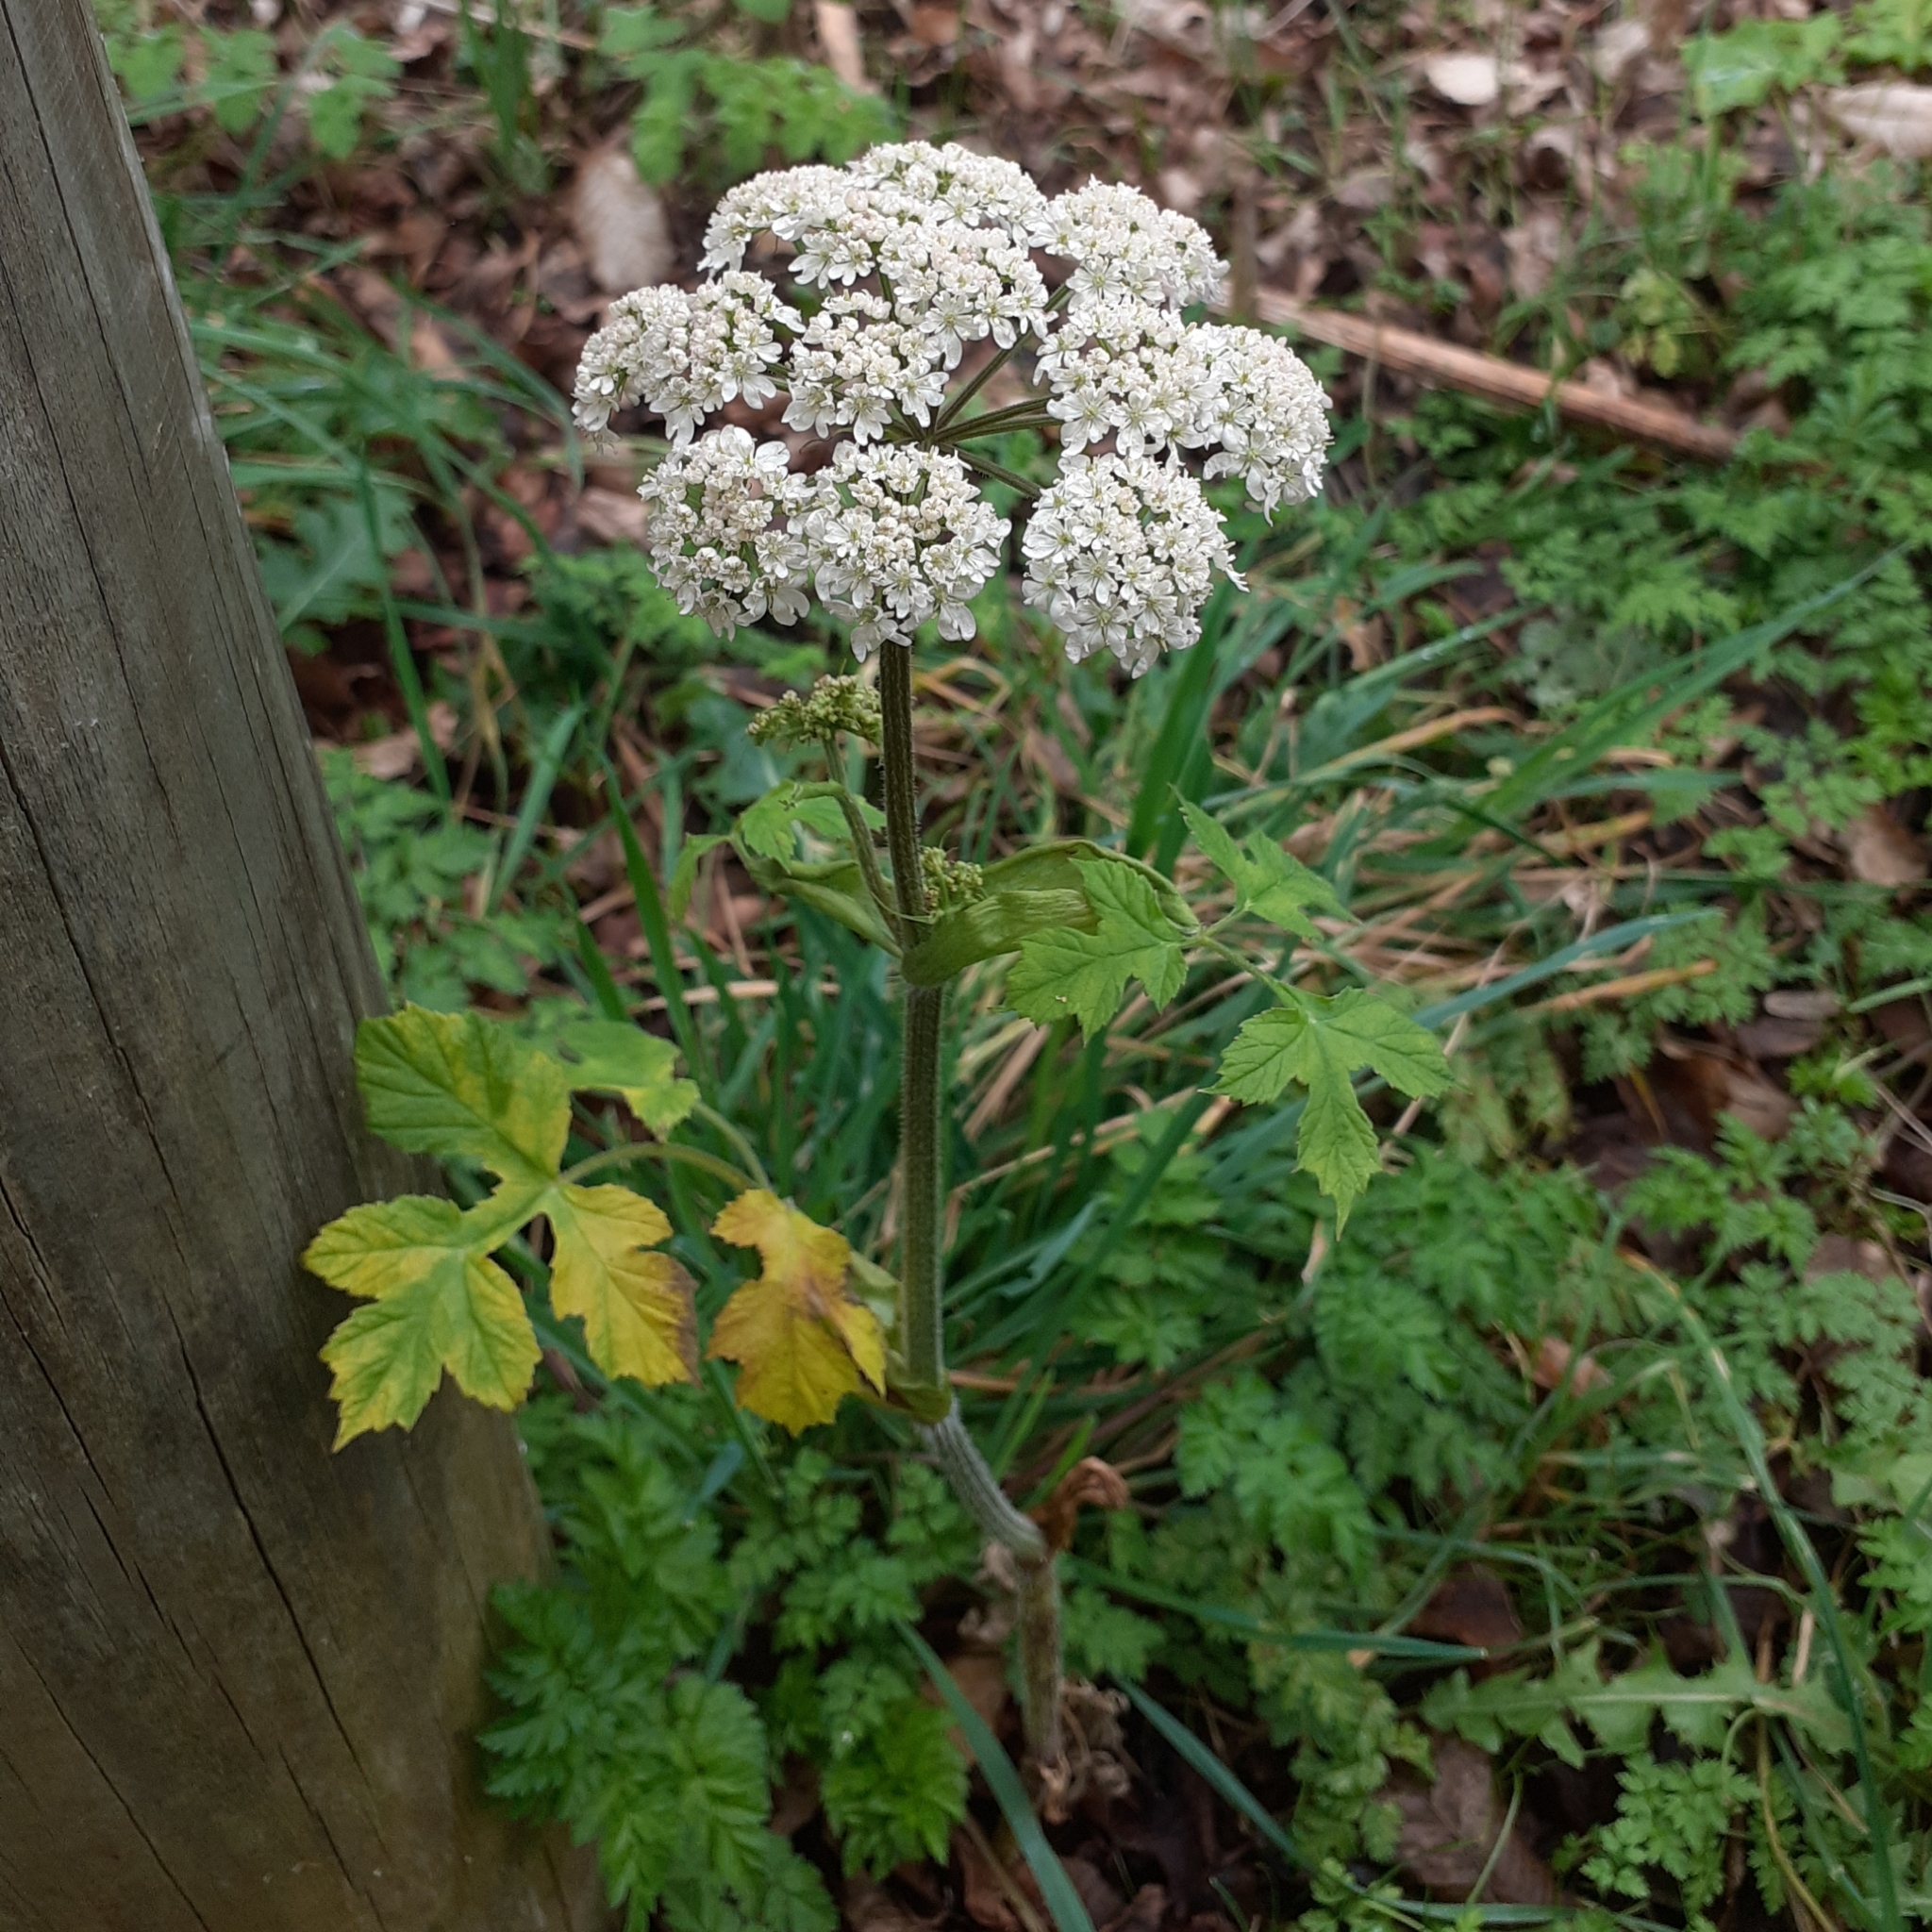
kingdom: Plantae
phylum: Tracheophyta
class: Magnoliopsida
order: Apiales
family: Apiaceae
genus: Heracleum
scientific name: Heracleum sphondylium
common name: Hogweed
